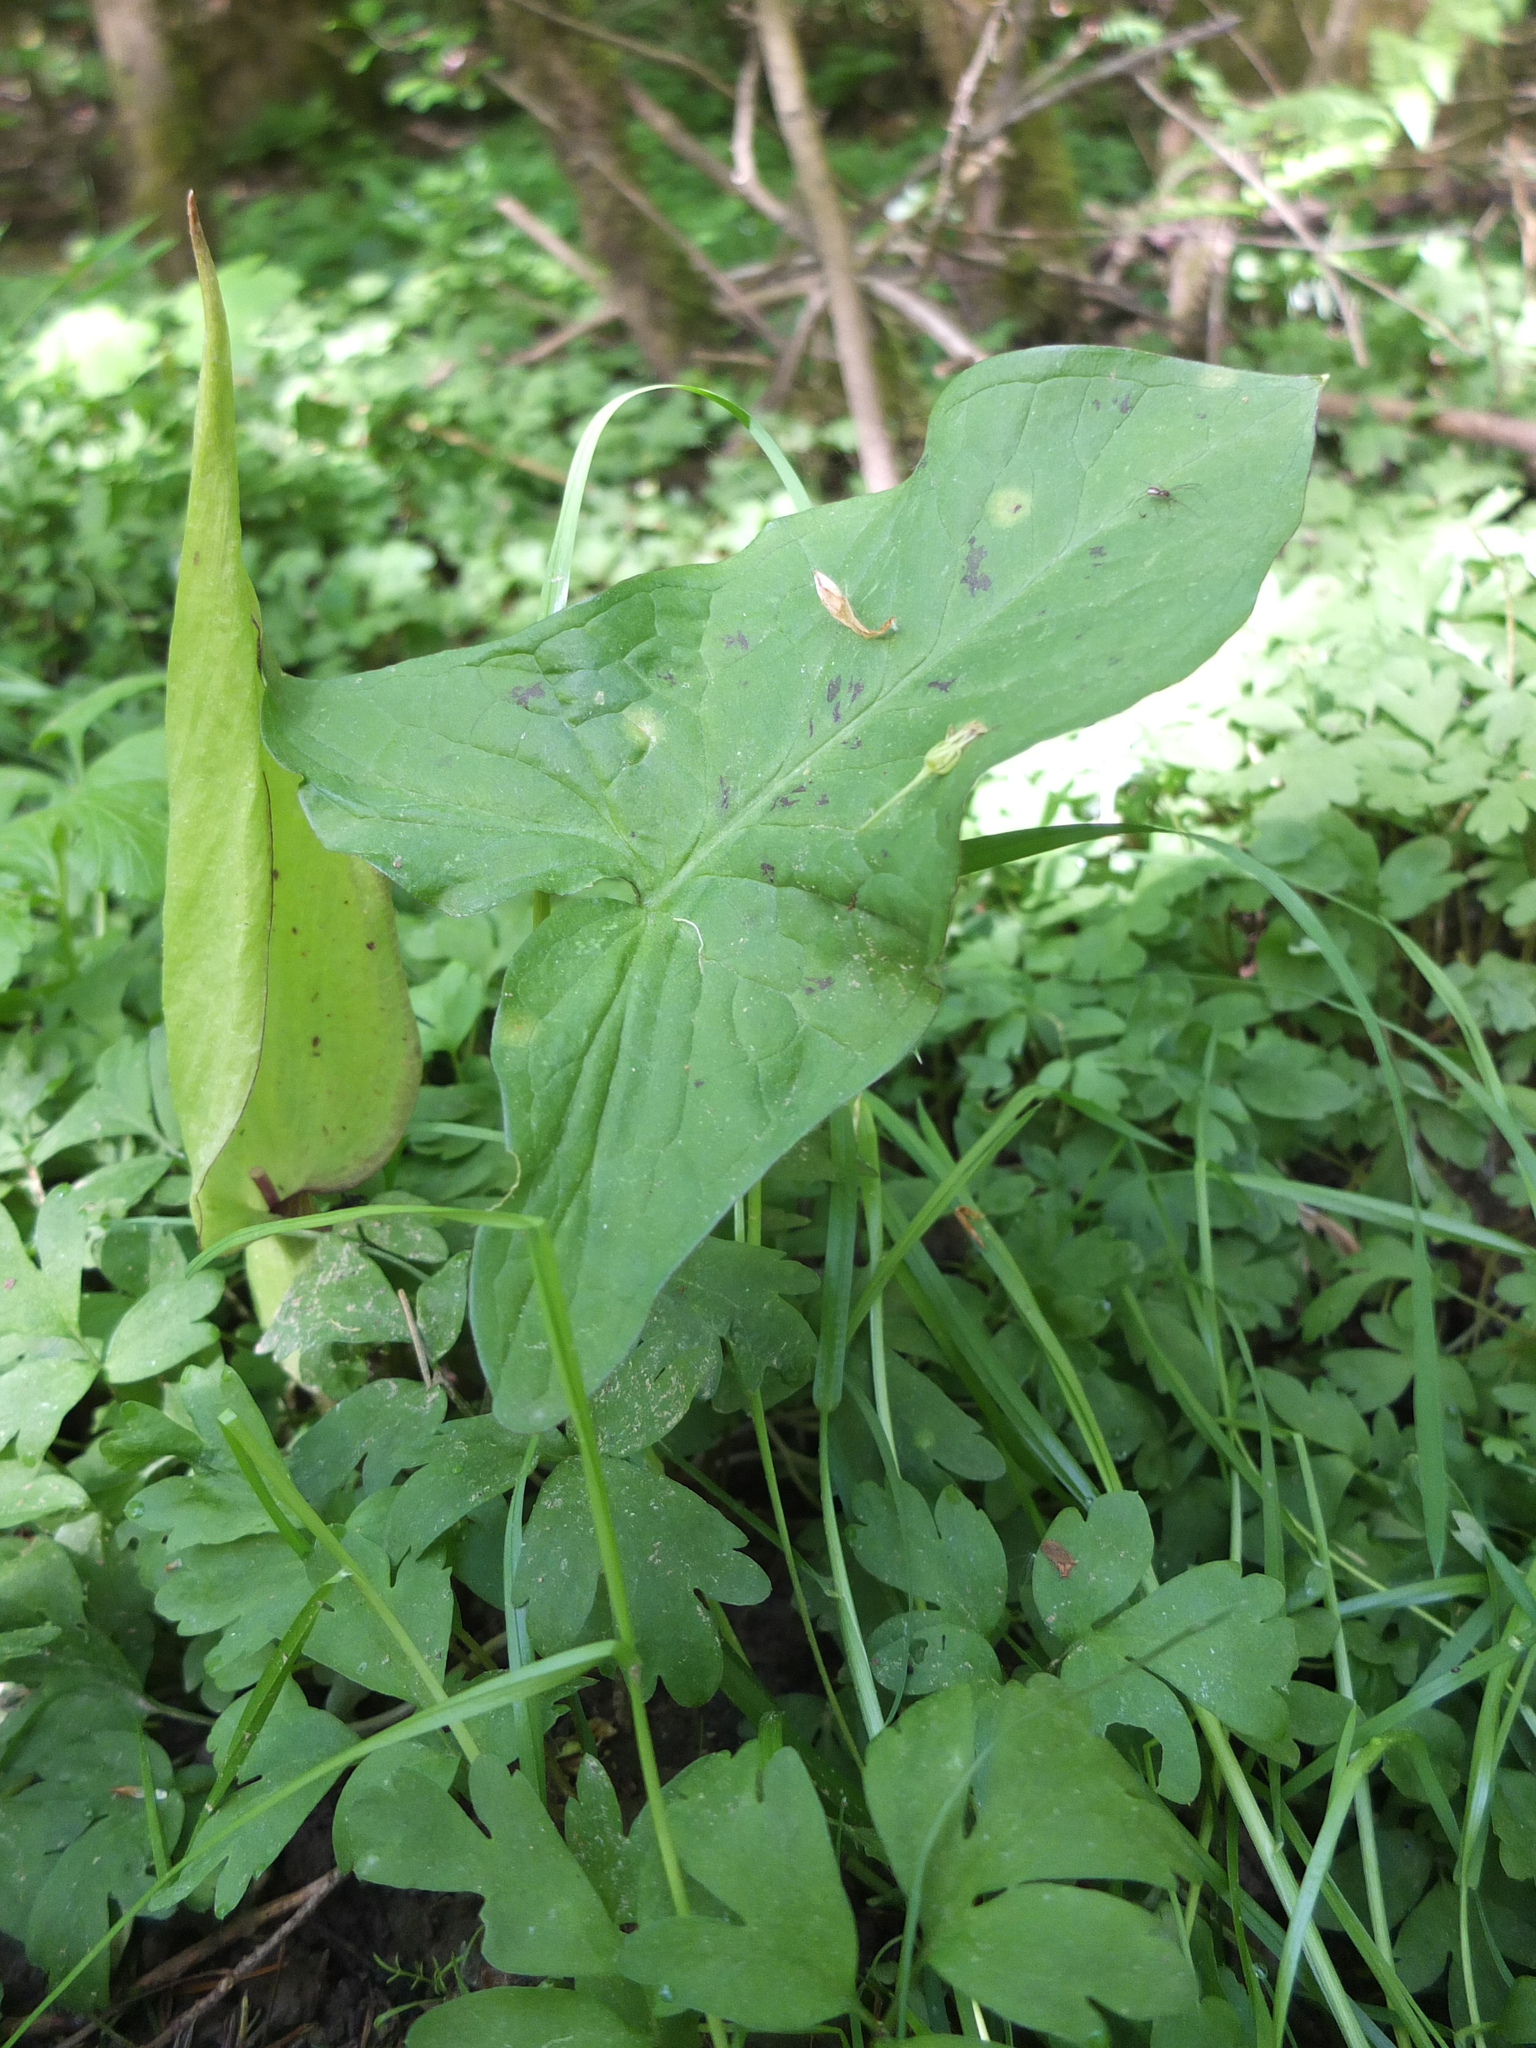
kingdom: Plantae
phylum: Tracheophyta
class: Liliopsida
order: Alismatales
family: Araceae
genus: Arum
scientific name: Arum maculatum
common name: Lords-and-ladies
